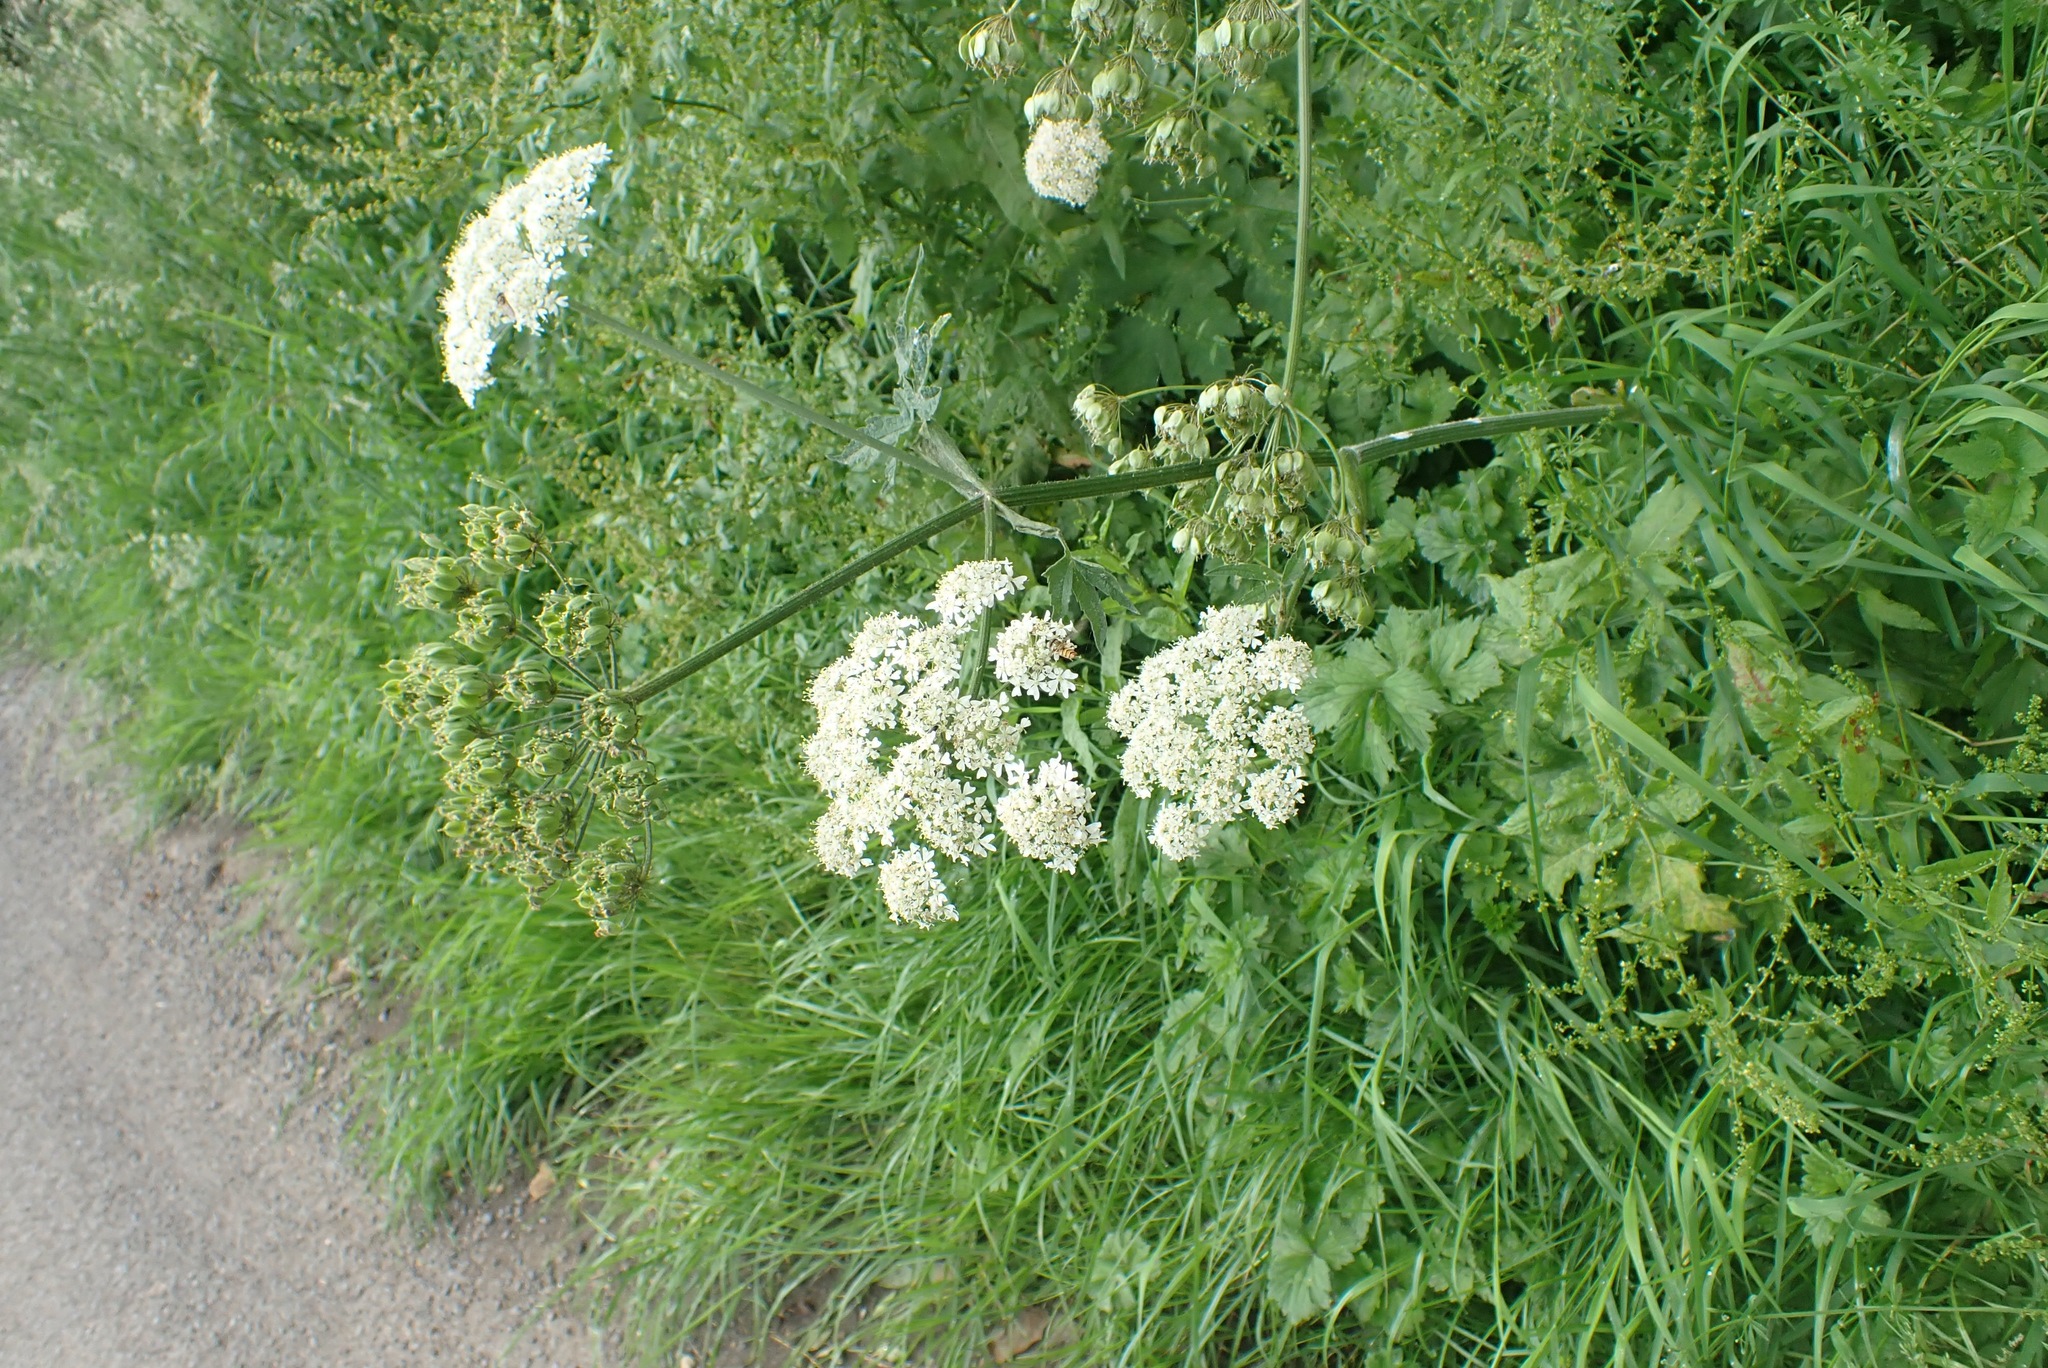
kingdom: Plantae
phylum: Tracheophyta
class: Magnoliopsida
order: Apiales
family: Apiaceae
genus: Heracleum
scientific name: Heracleum sphondylium
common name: Hogweed
